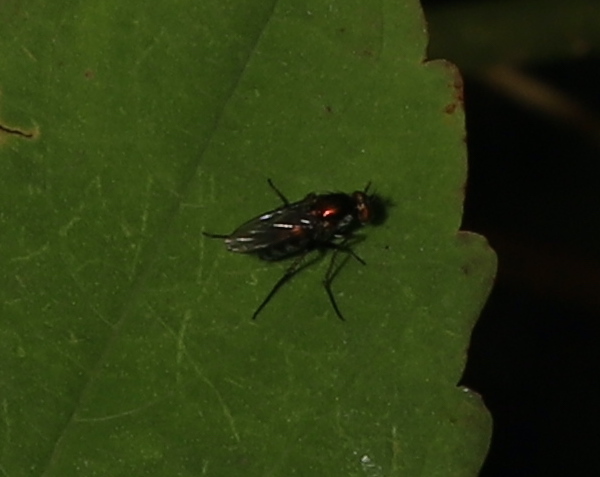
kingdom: Animalia
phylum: Arthropoda
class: Insecta
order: Diptera
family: Dolichopodidae
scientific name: Dolichopodidae
